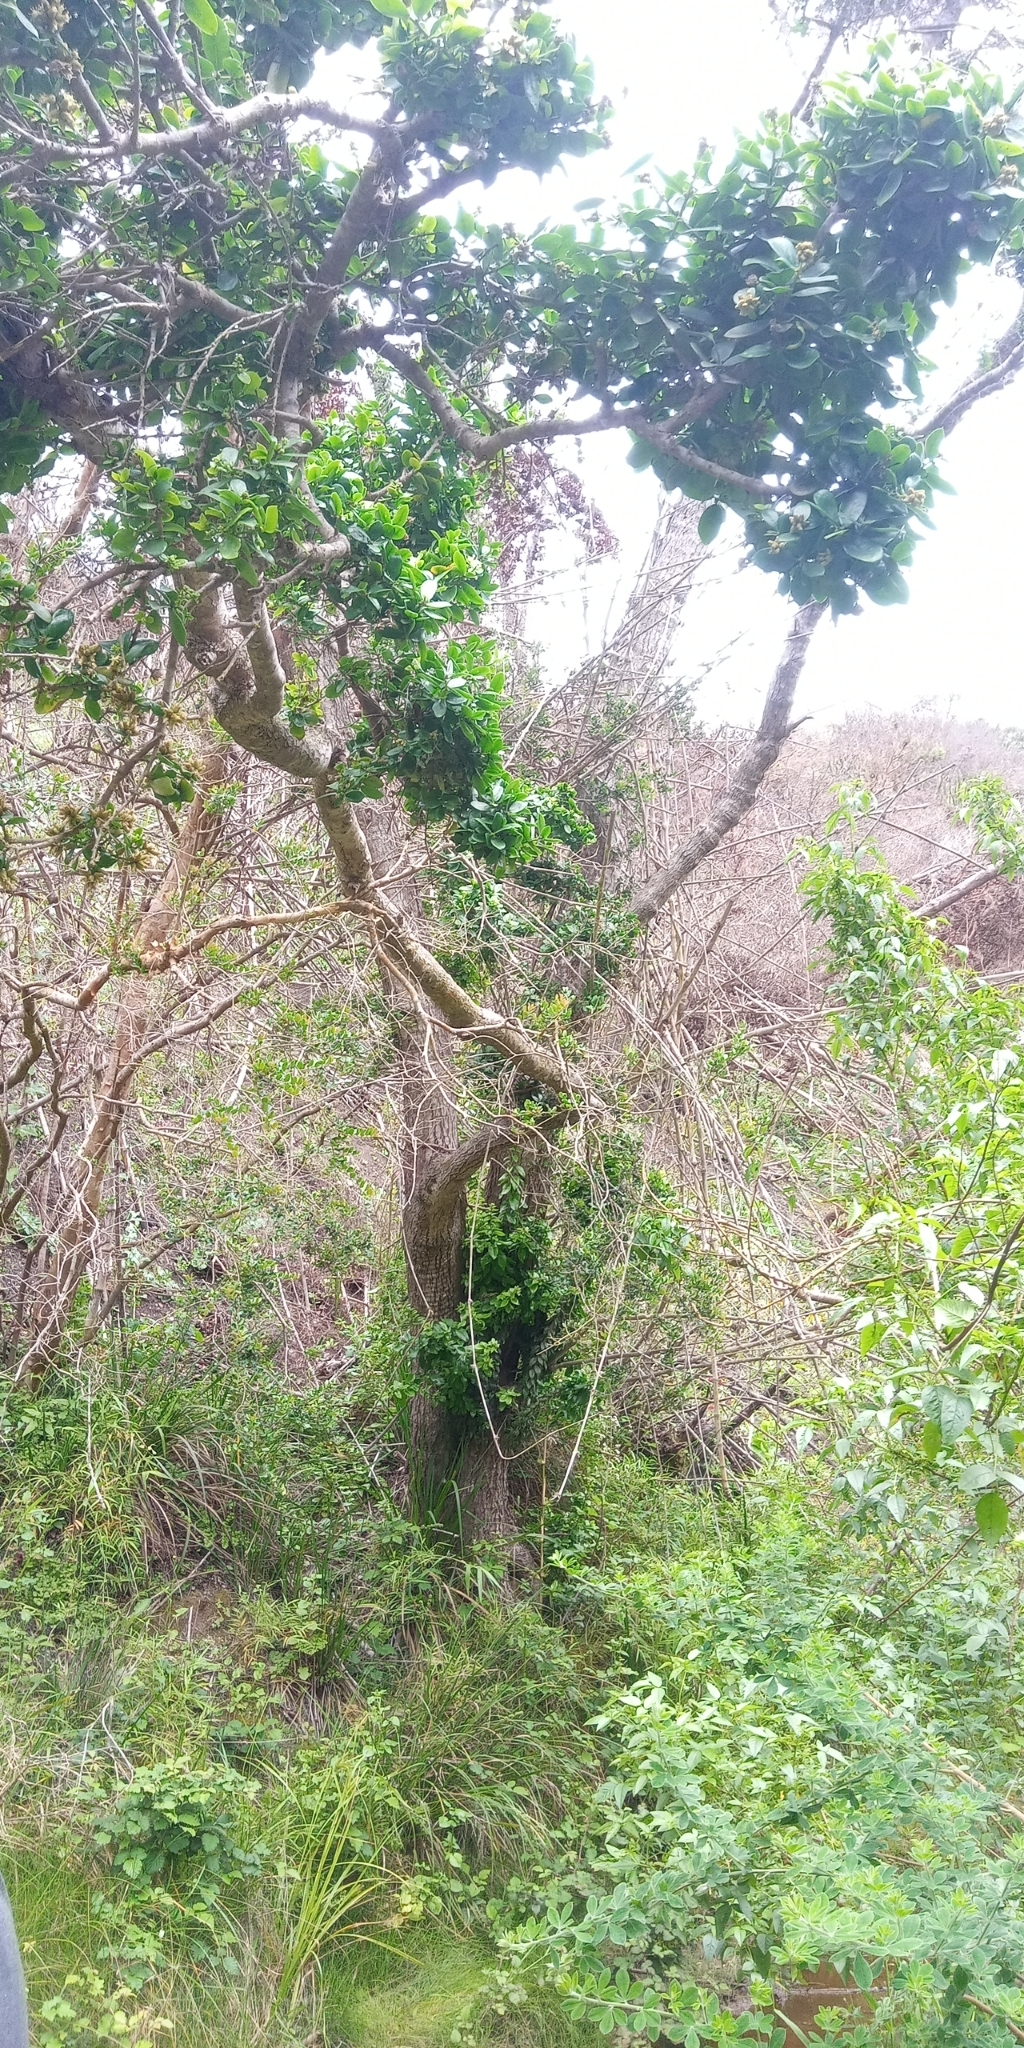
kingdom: Plantae
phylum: Tracheophyta
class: Magnoliopsida
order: Asterales
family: Asteraceae
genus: Archidasyphyllum
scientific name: Archidasyphyllum excelsum
